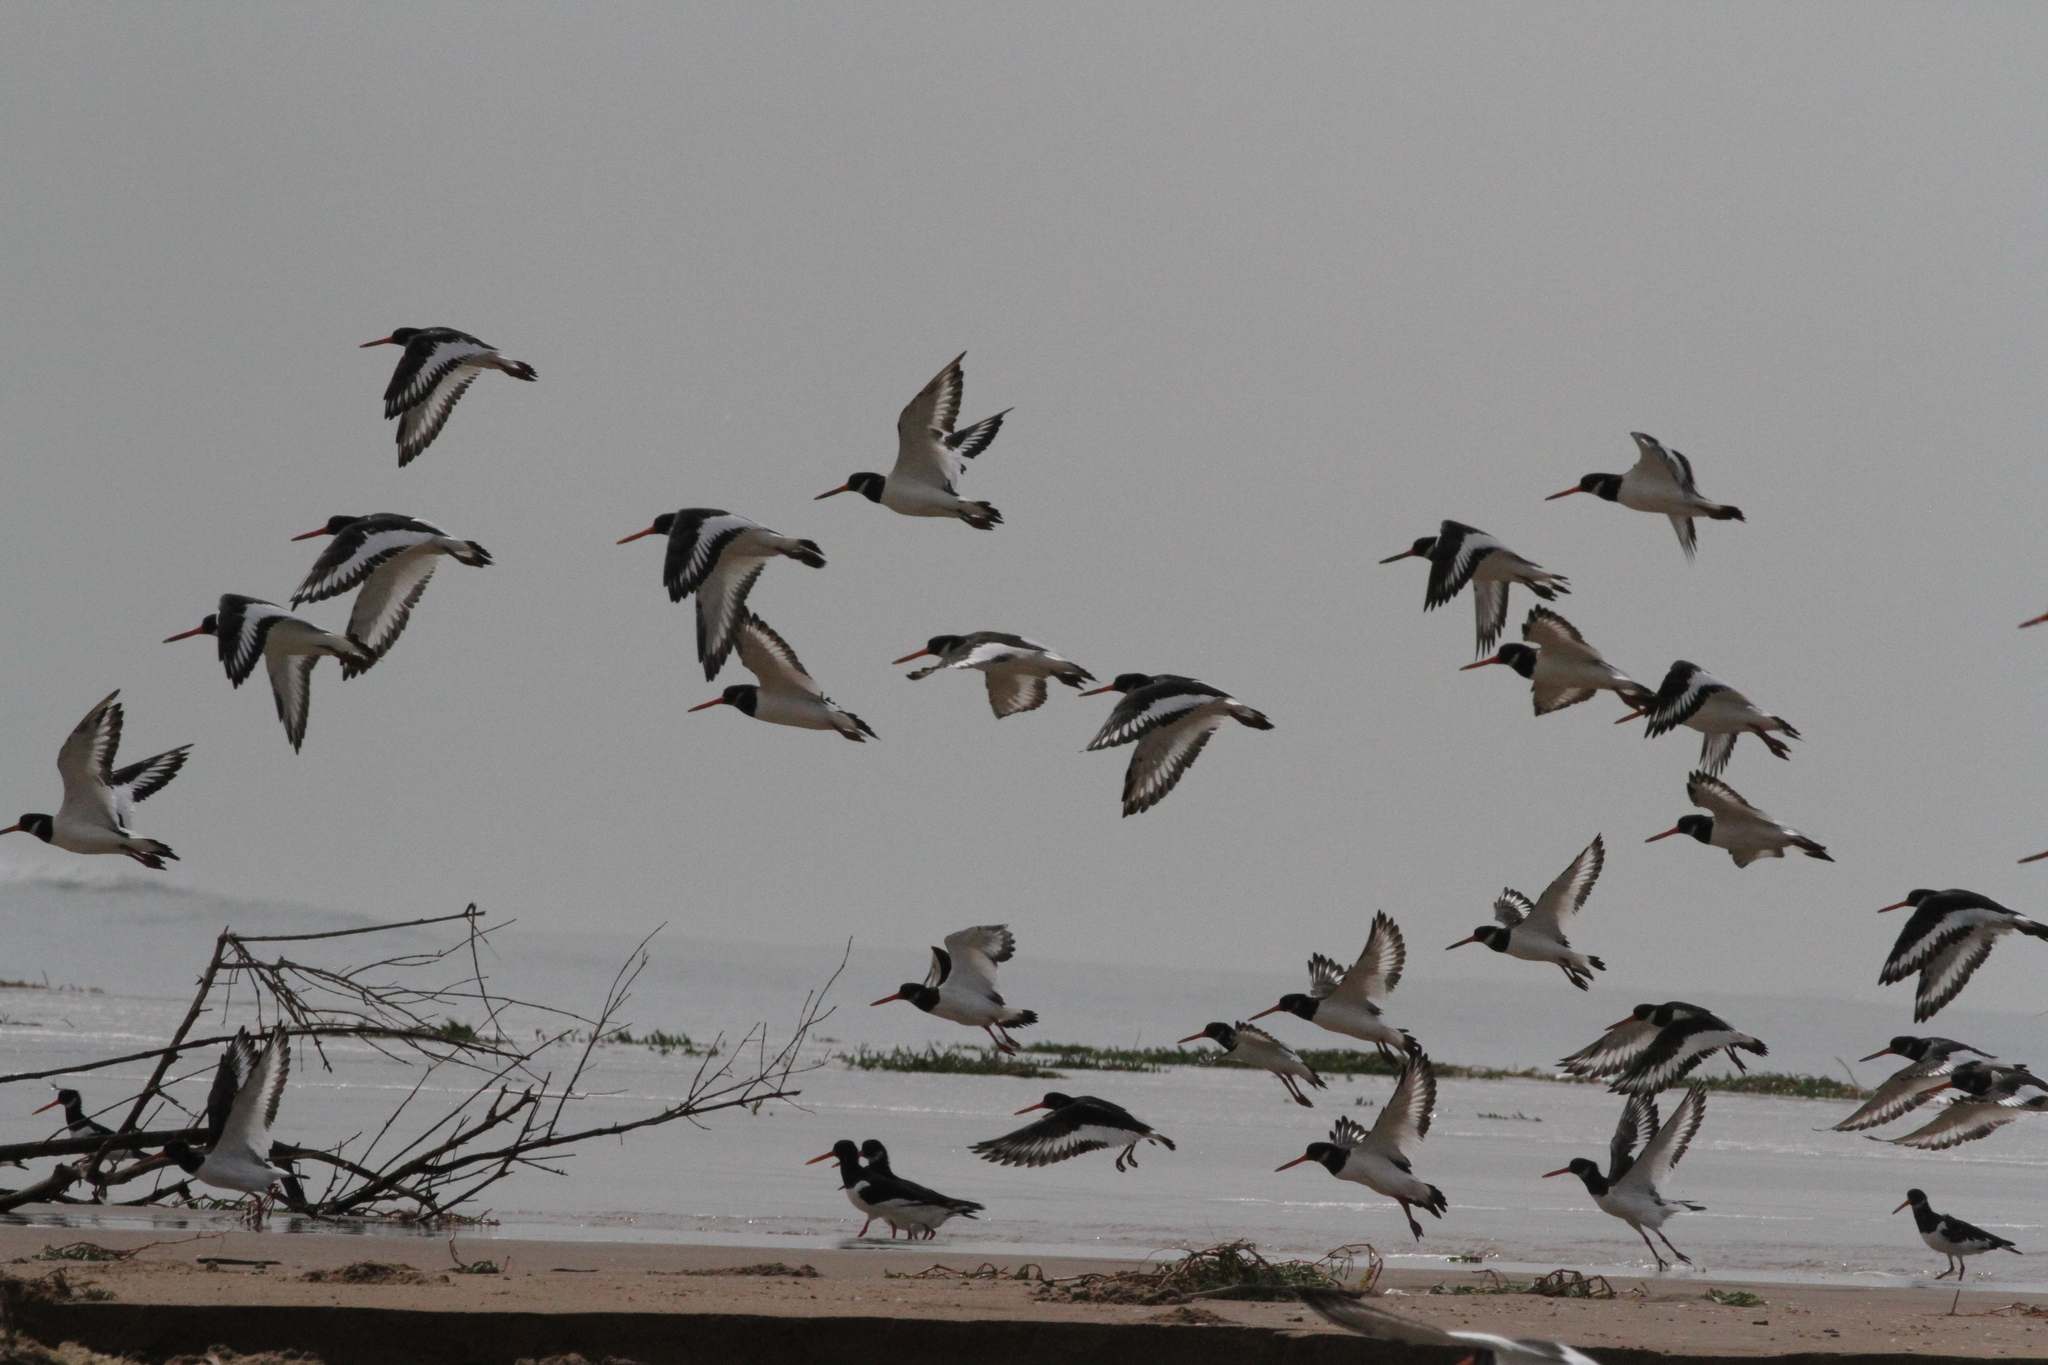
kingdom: Animalia
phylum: Chordata
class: Aves
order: Charadriiformes
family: Haematopodidae
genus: Haematopus
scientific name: Haematopus ostralegus
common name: Eurasian oystercatcher
